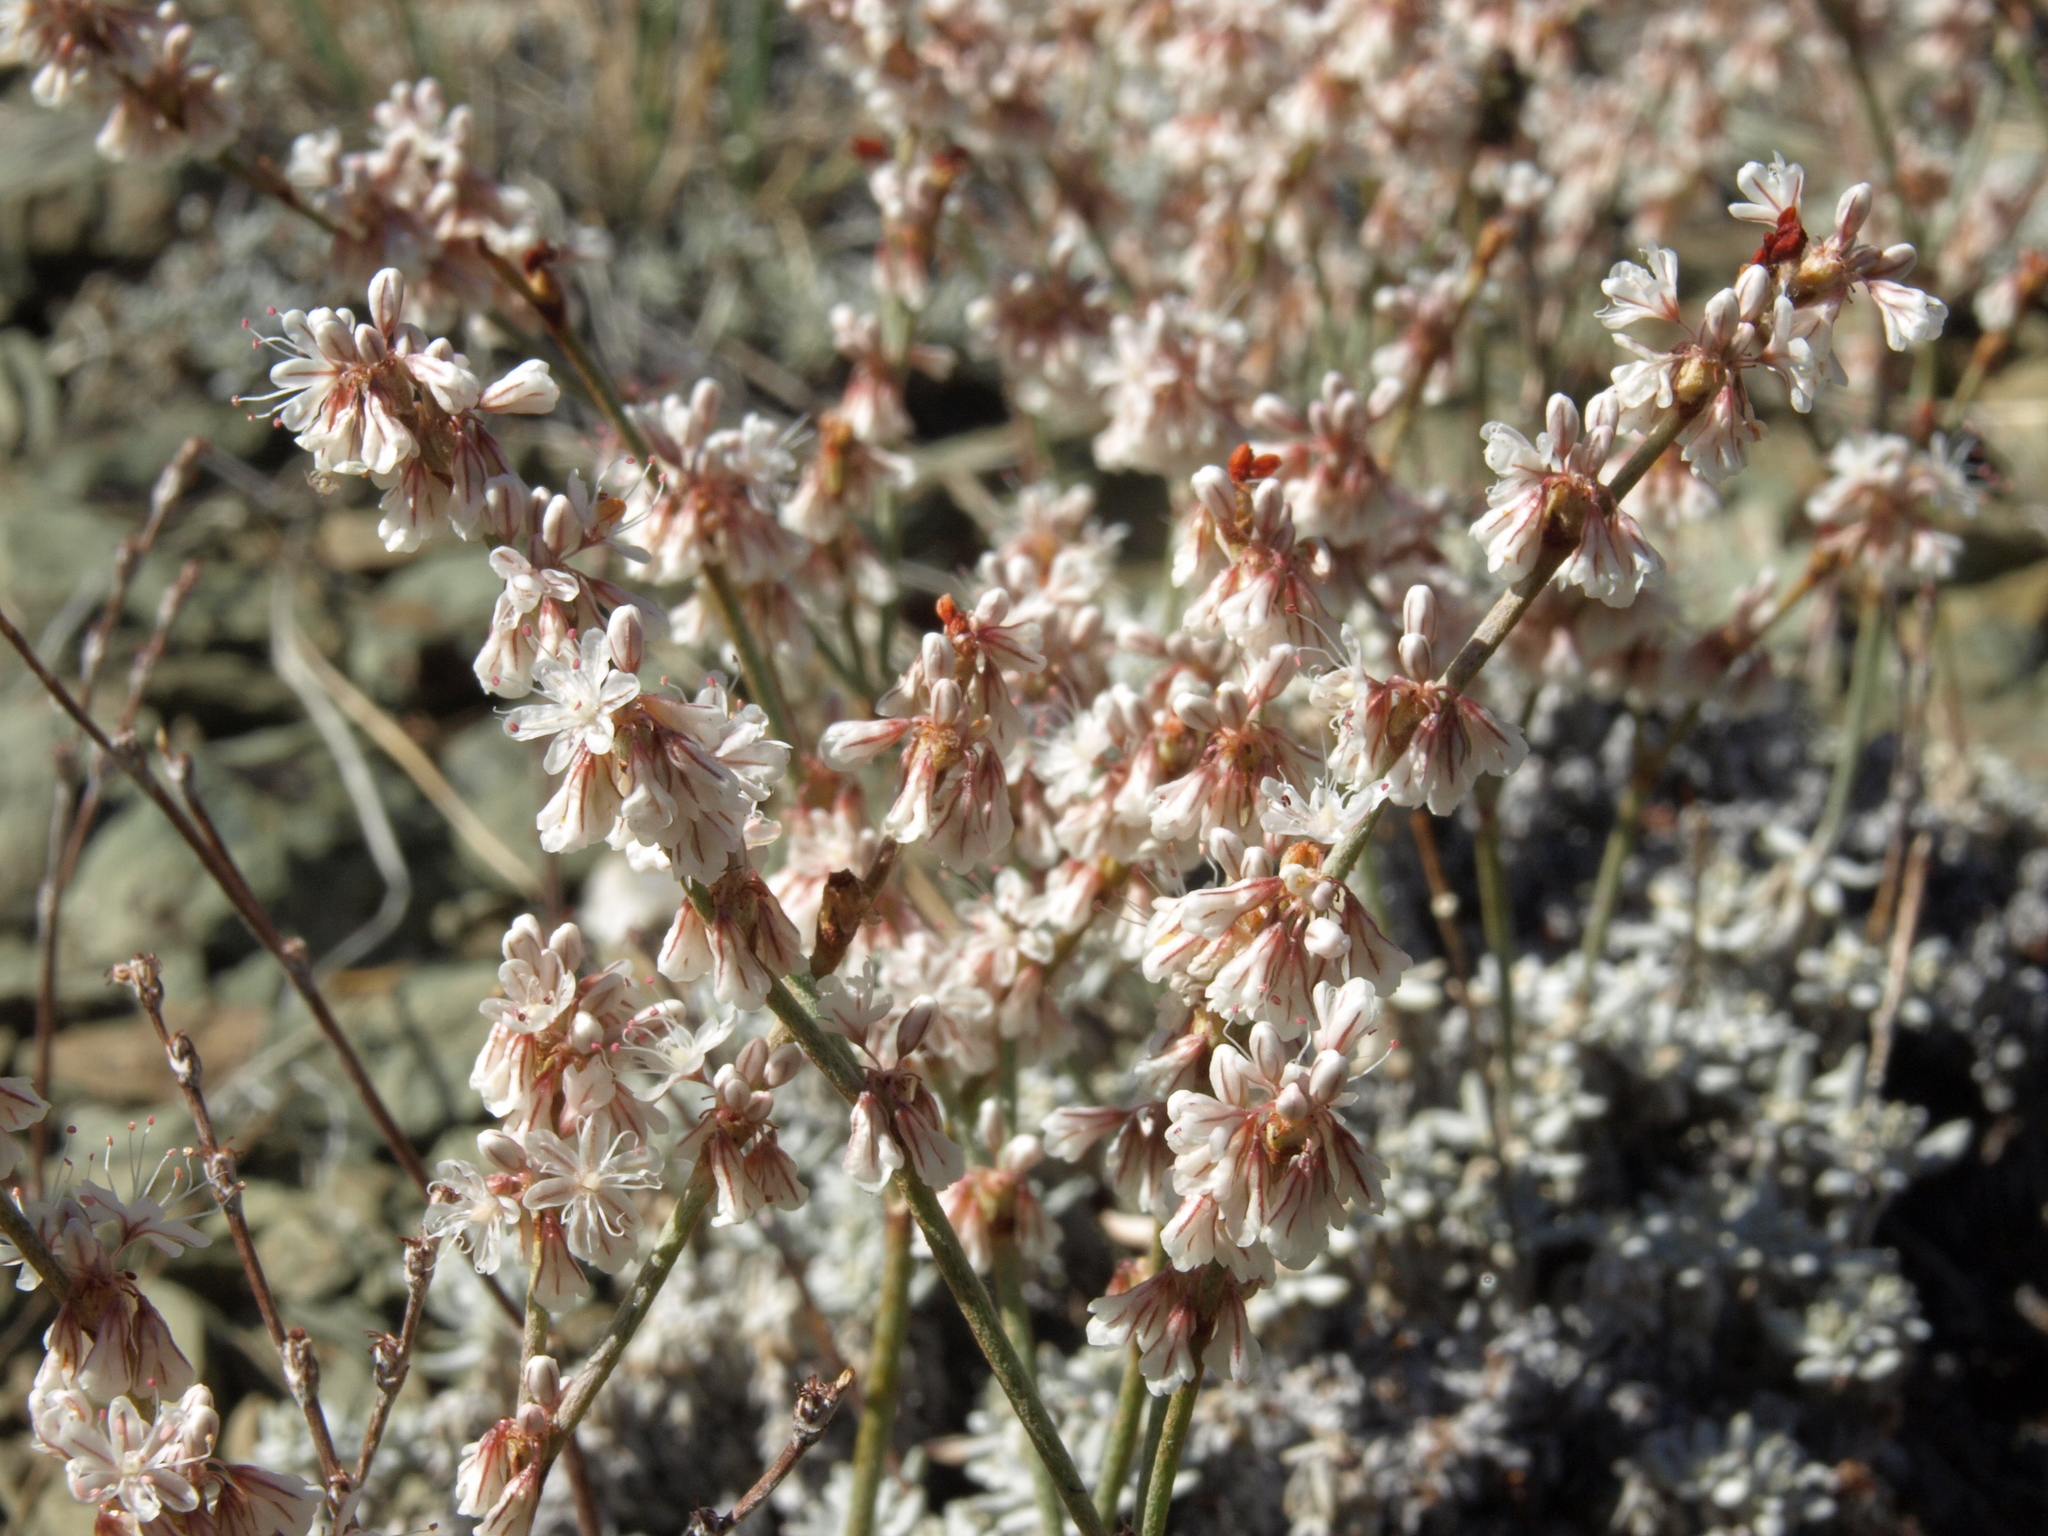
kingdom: Plantae
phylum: Tracheophyta
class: Magnoliopsida
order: Caryophyllales
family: Polygonaceae
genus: Eriogonum
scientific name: Eriogonum wrightii
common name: Bastard-sage
